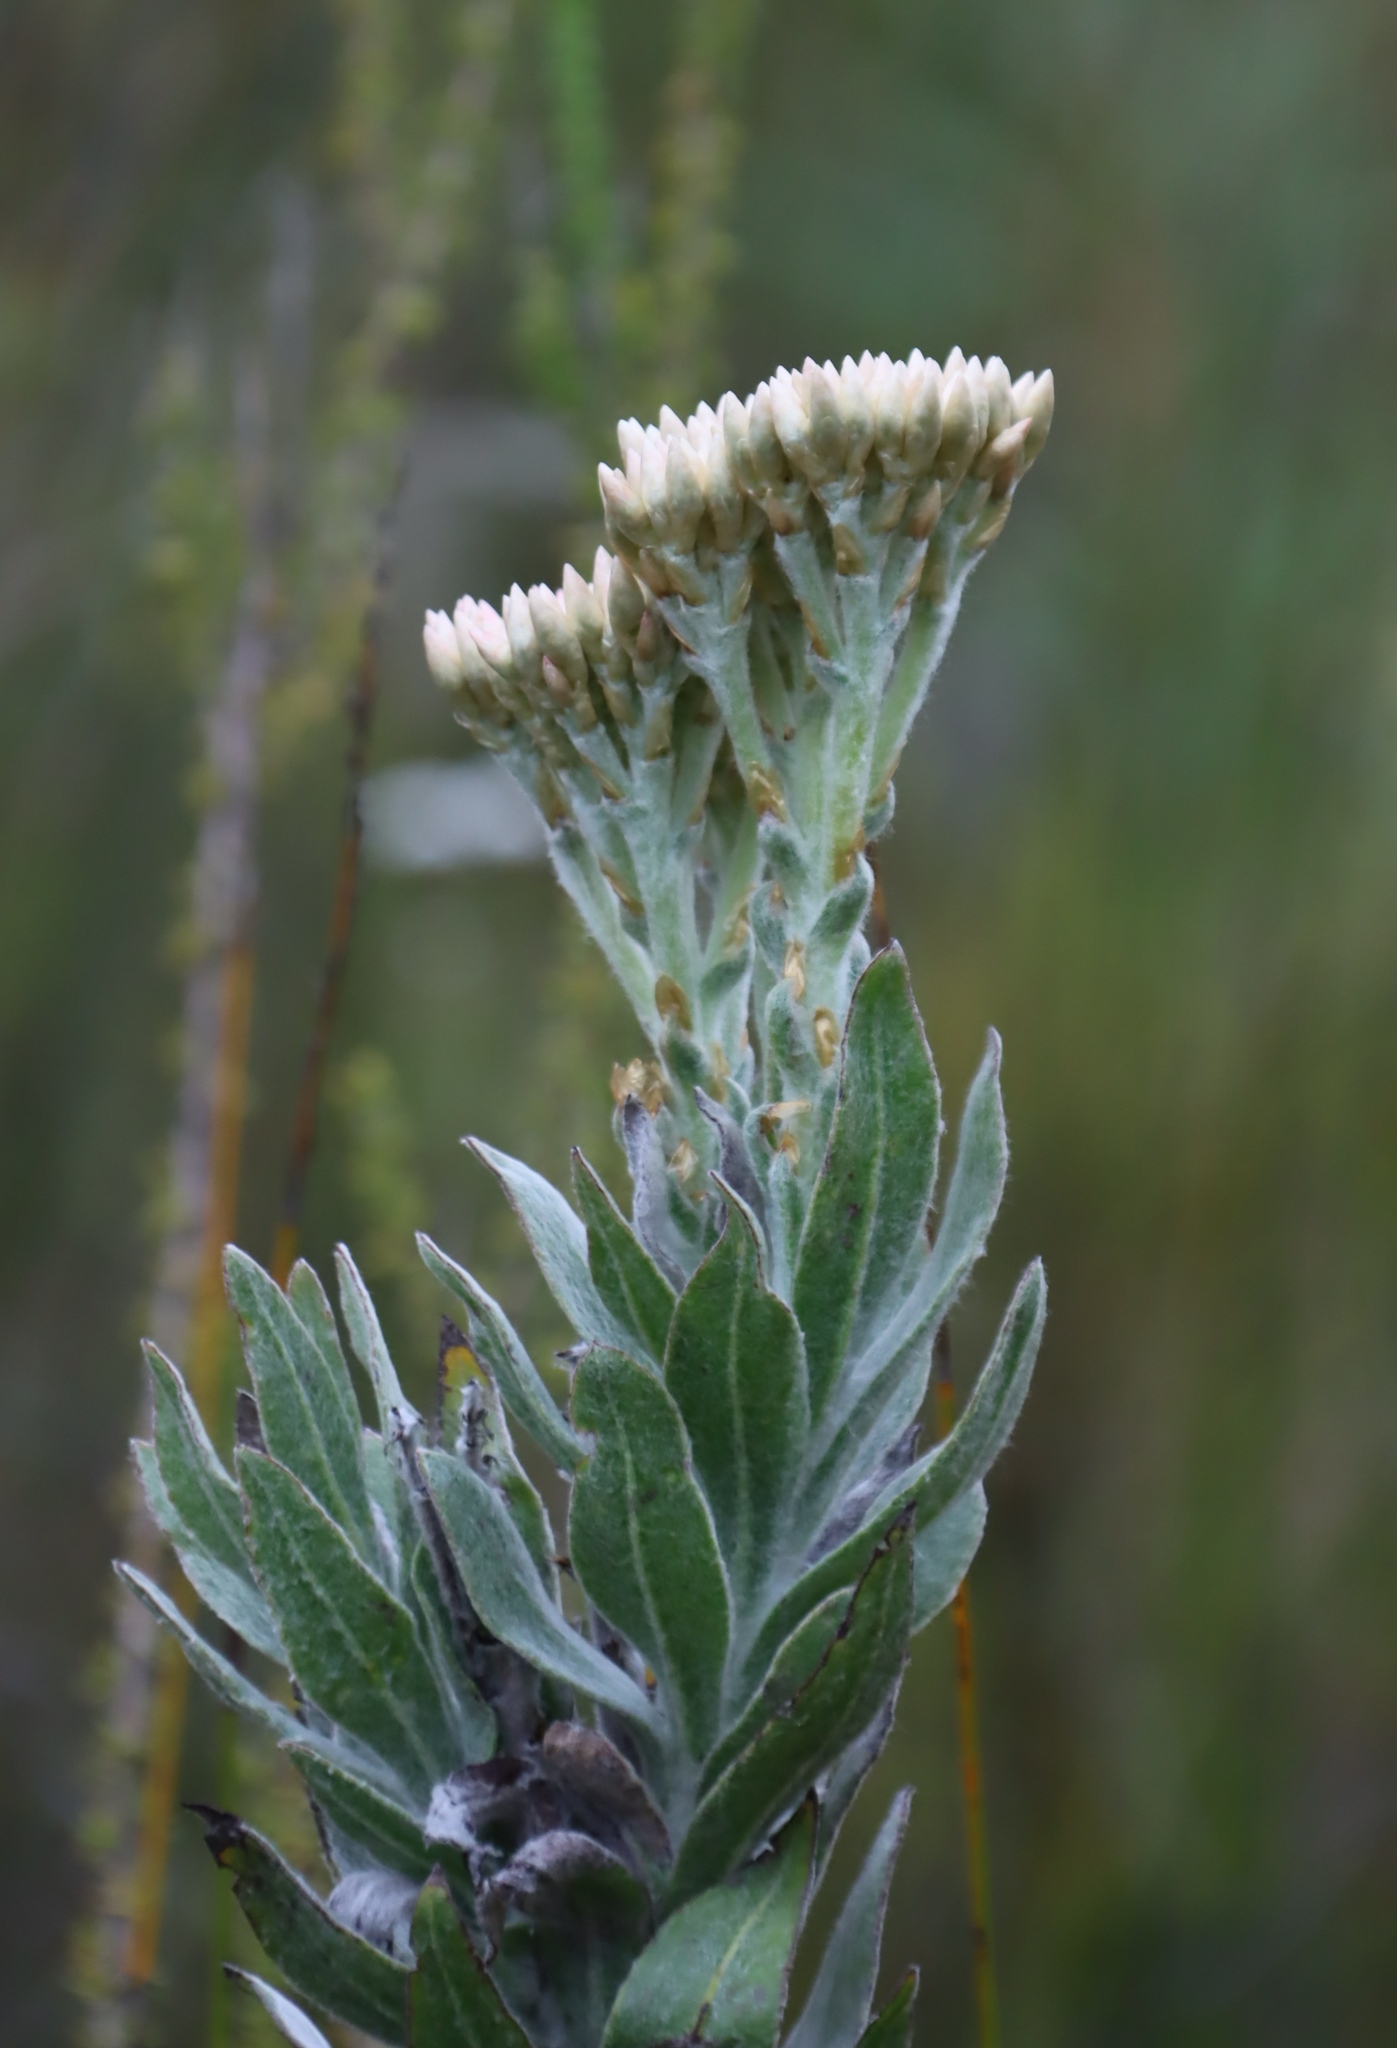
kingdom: Plantae
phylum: Tracheophyta
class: Magnoliopsida
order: Asterales
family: Asteraceae
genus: Syncarpha
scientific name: Syncarpha milleflora
